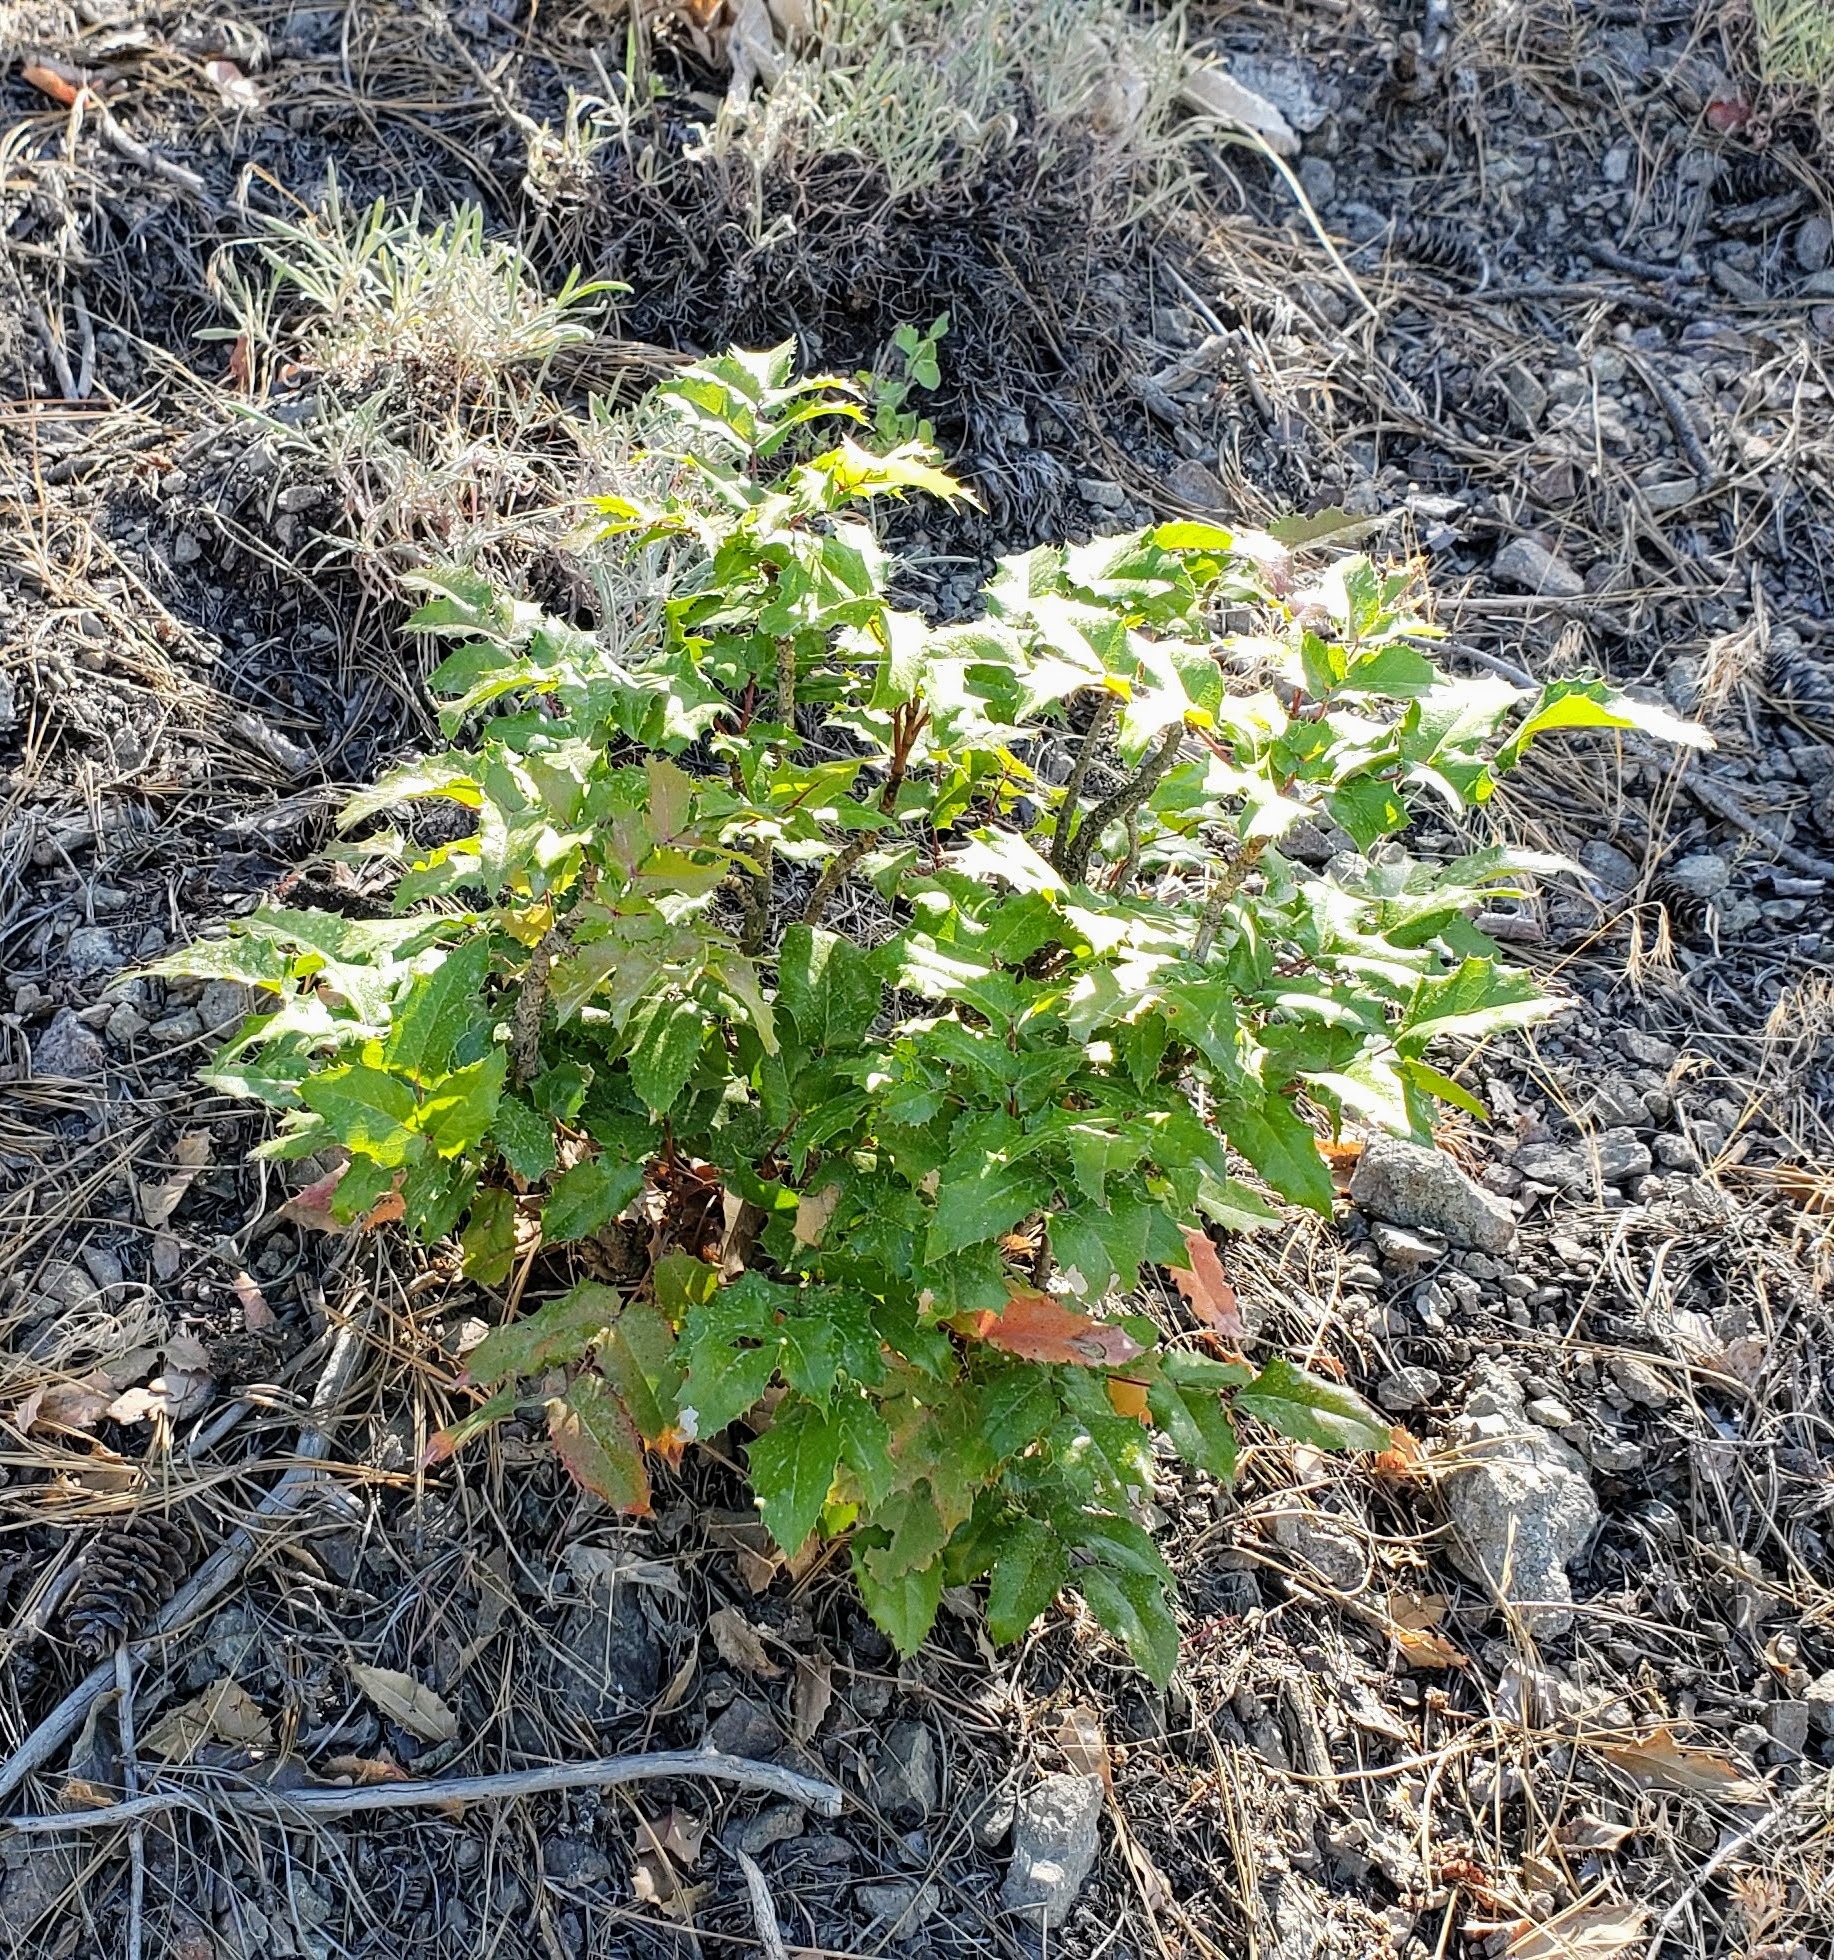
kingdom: Plantae
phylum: Tracheophyta
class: Magnoliopsida
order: Ranunculales
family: Berberidaceae
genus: Mahonia
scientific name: Mahonia aquifolium
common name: Oregon-grape
